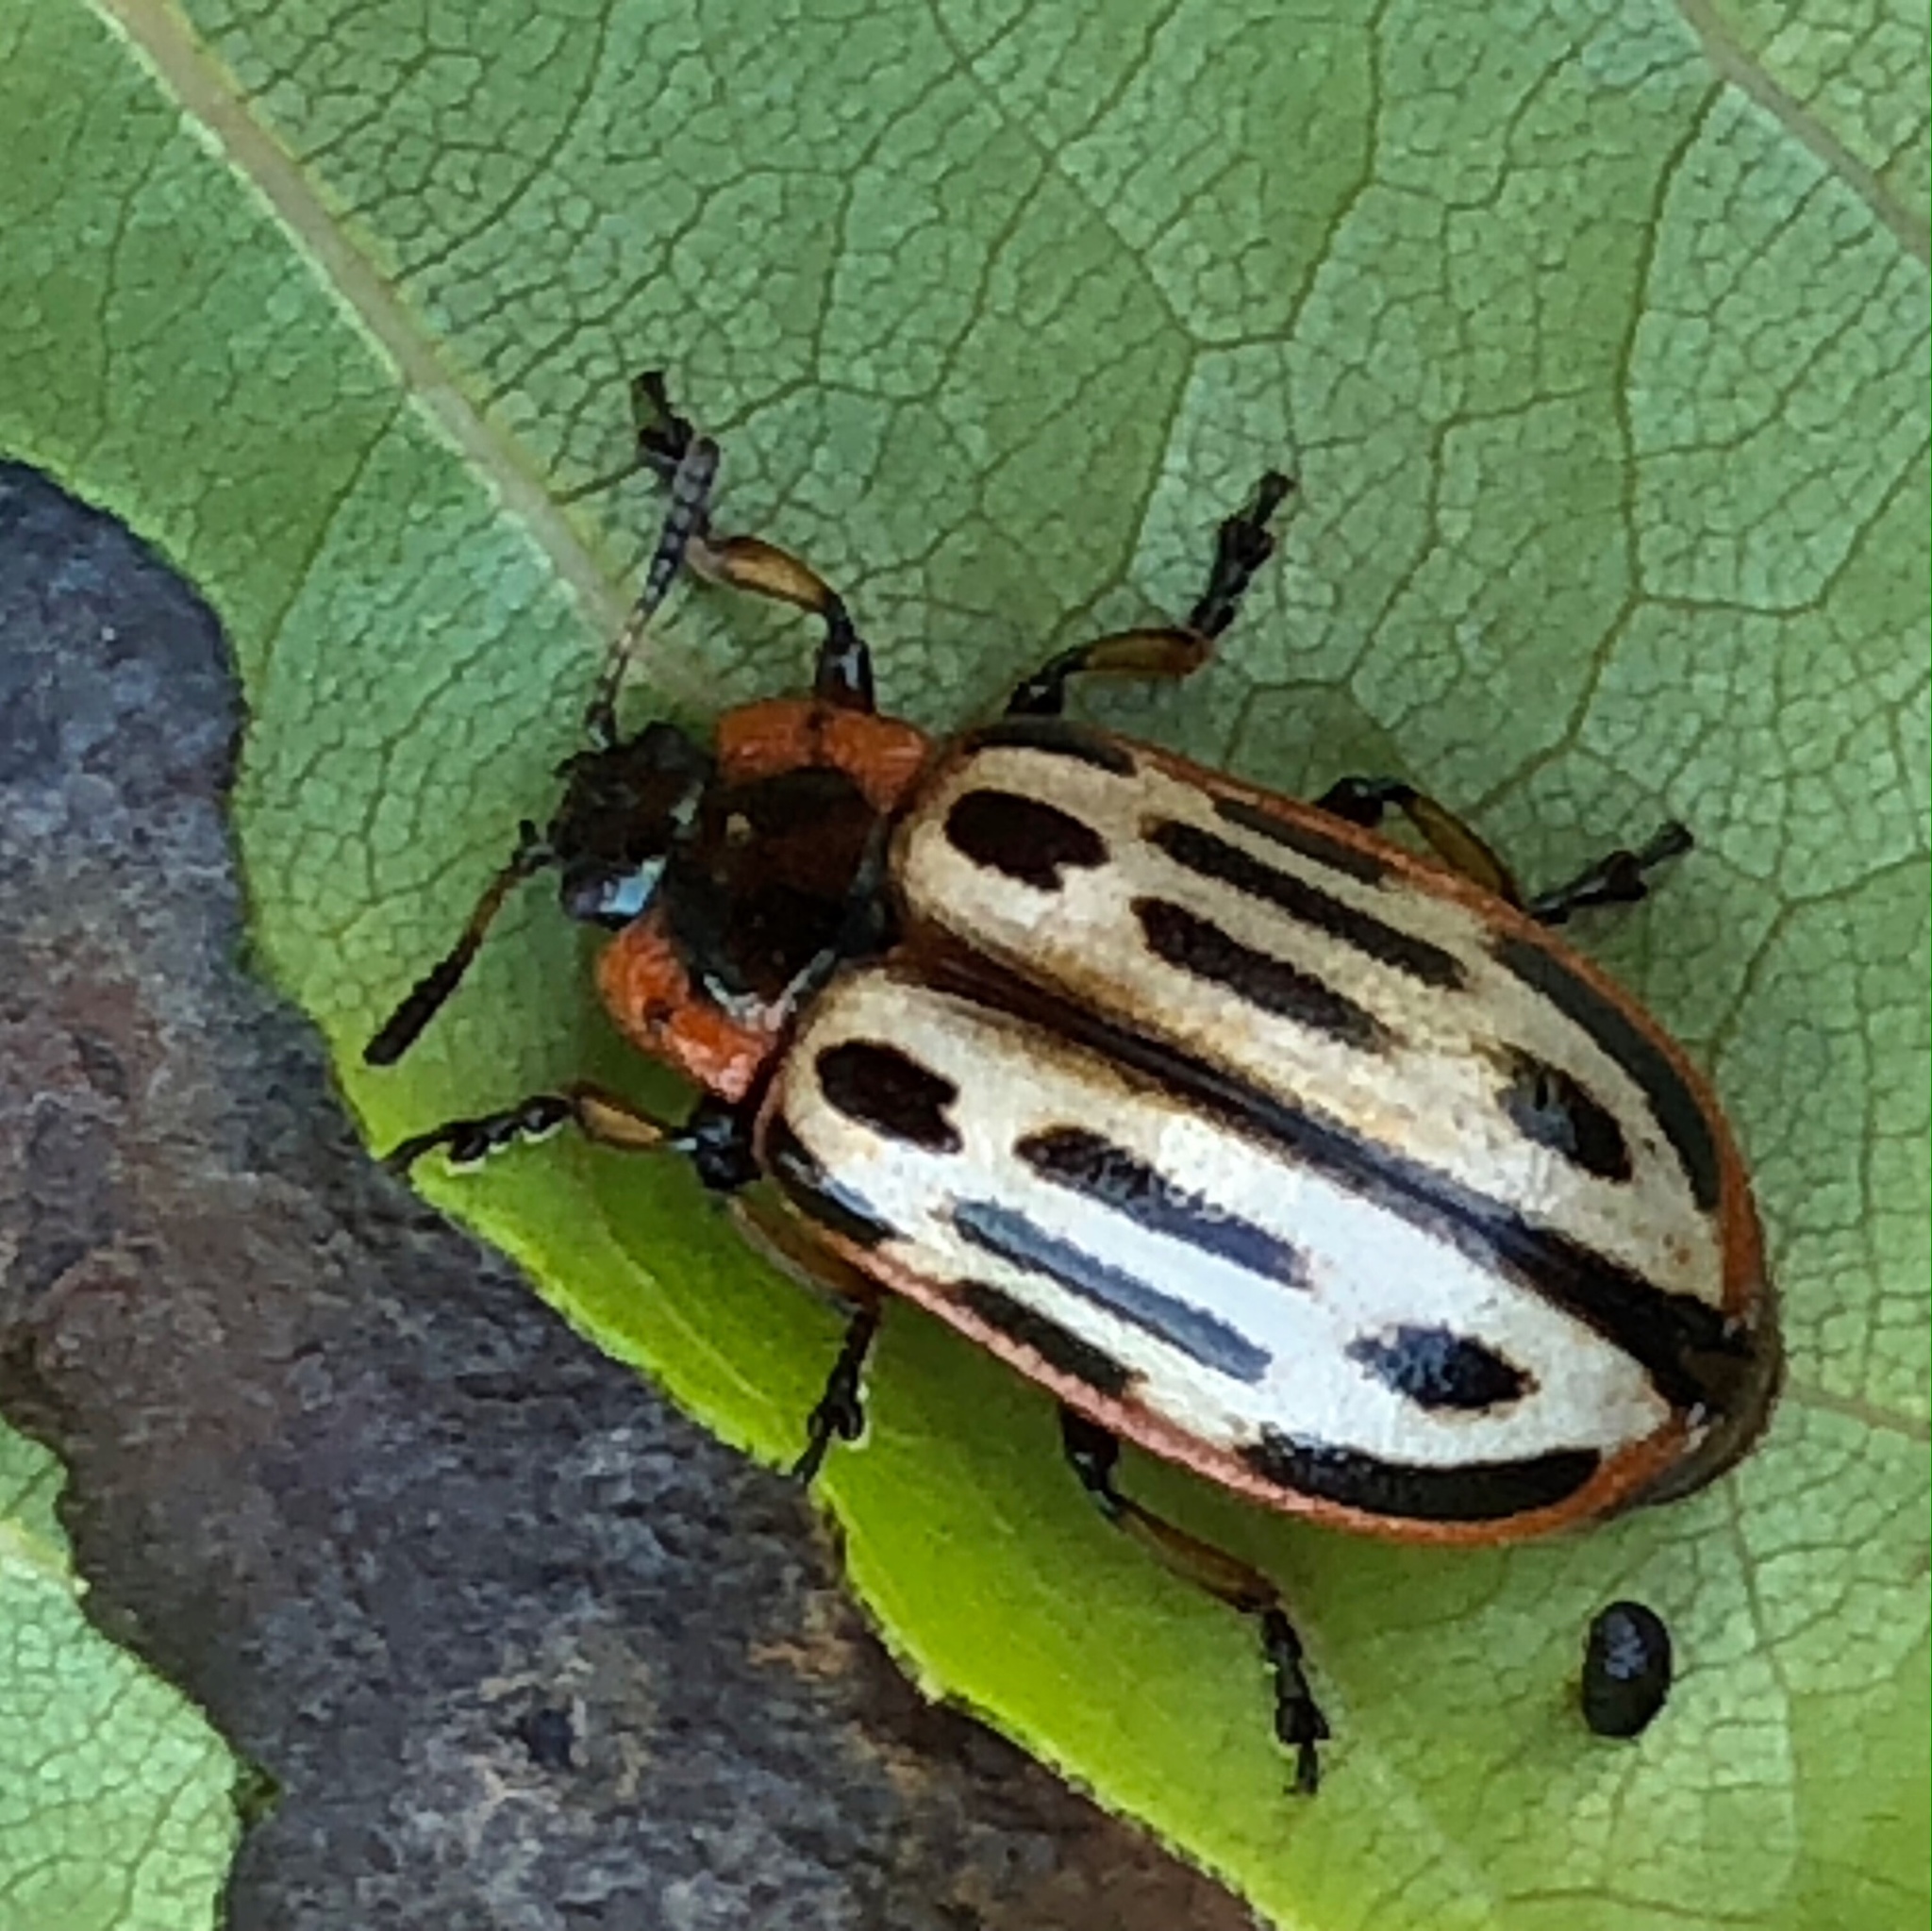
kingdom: Animalia
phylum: Arthropoda
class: Insecta
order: Coleoptera
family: Chrysomelidae
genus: Aethiopocassis
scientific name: Aethiopocassis scripta
